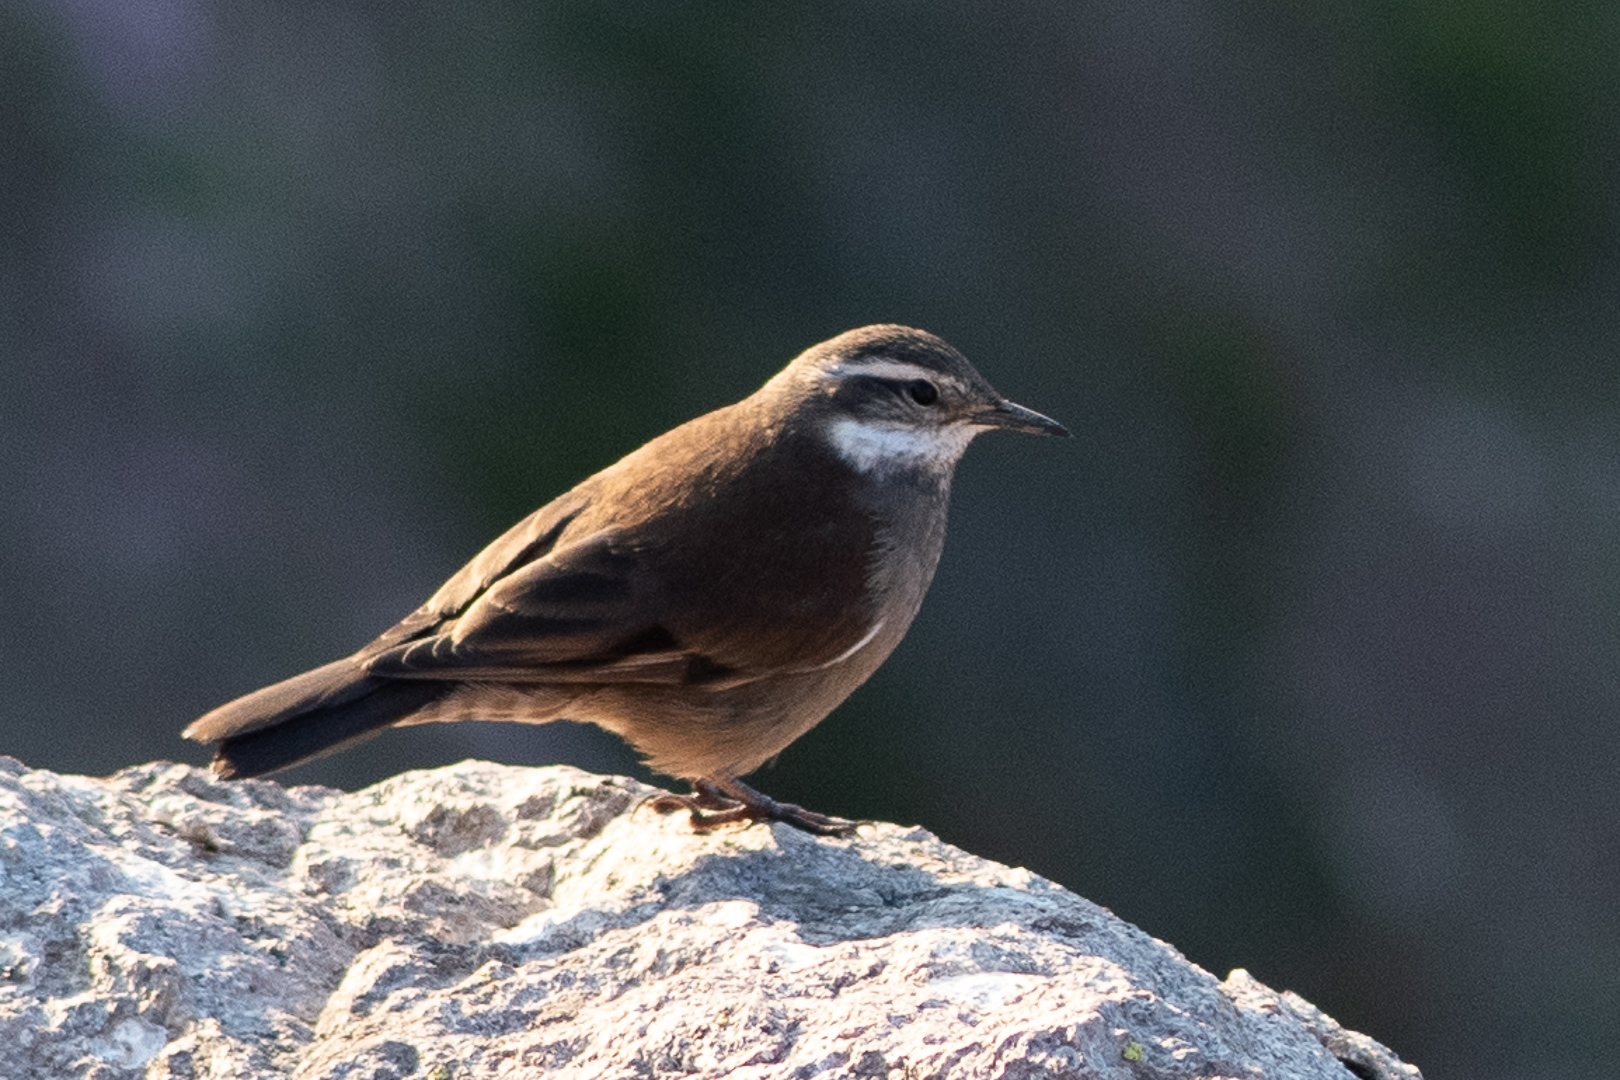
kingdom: Animalia
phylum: Chordata
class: Aves
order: Passeriformes
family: Furnariidae
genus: Cinclodes
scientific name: Cinclodes oustaleti
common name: Grey-flanked cinclodes
